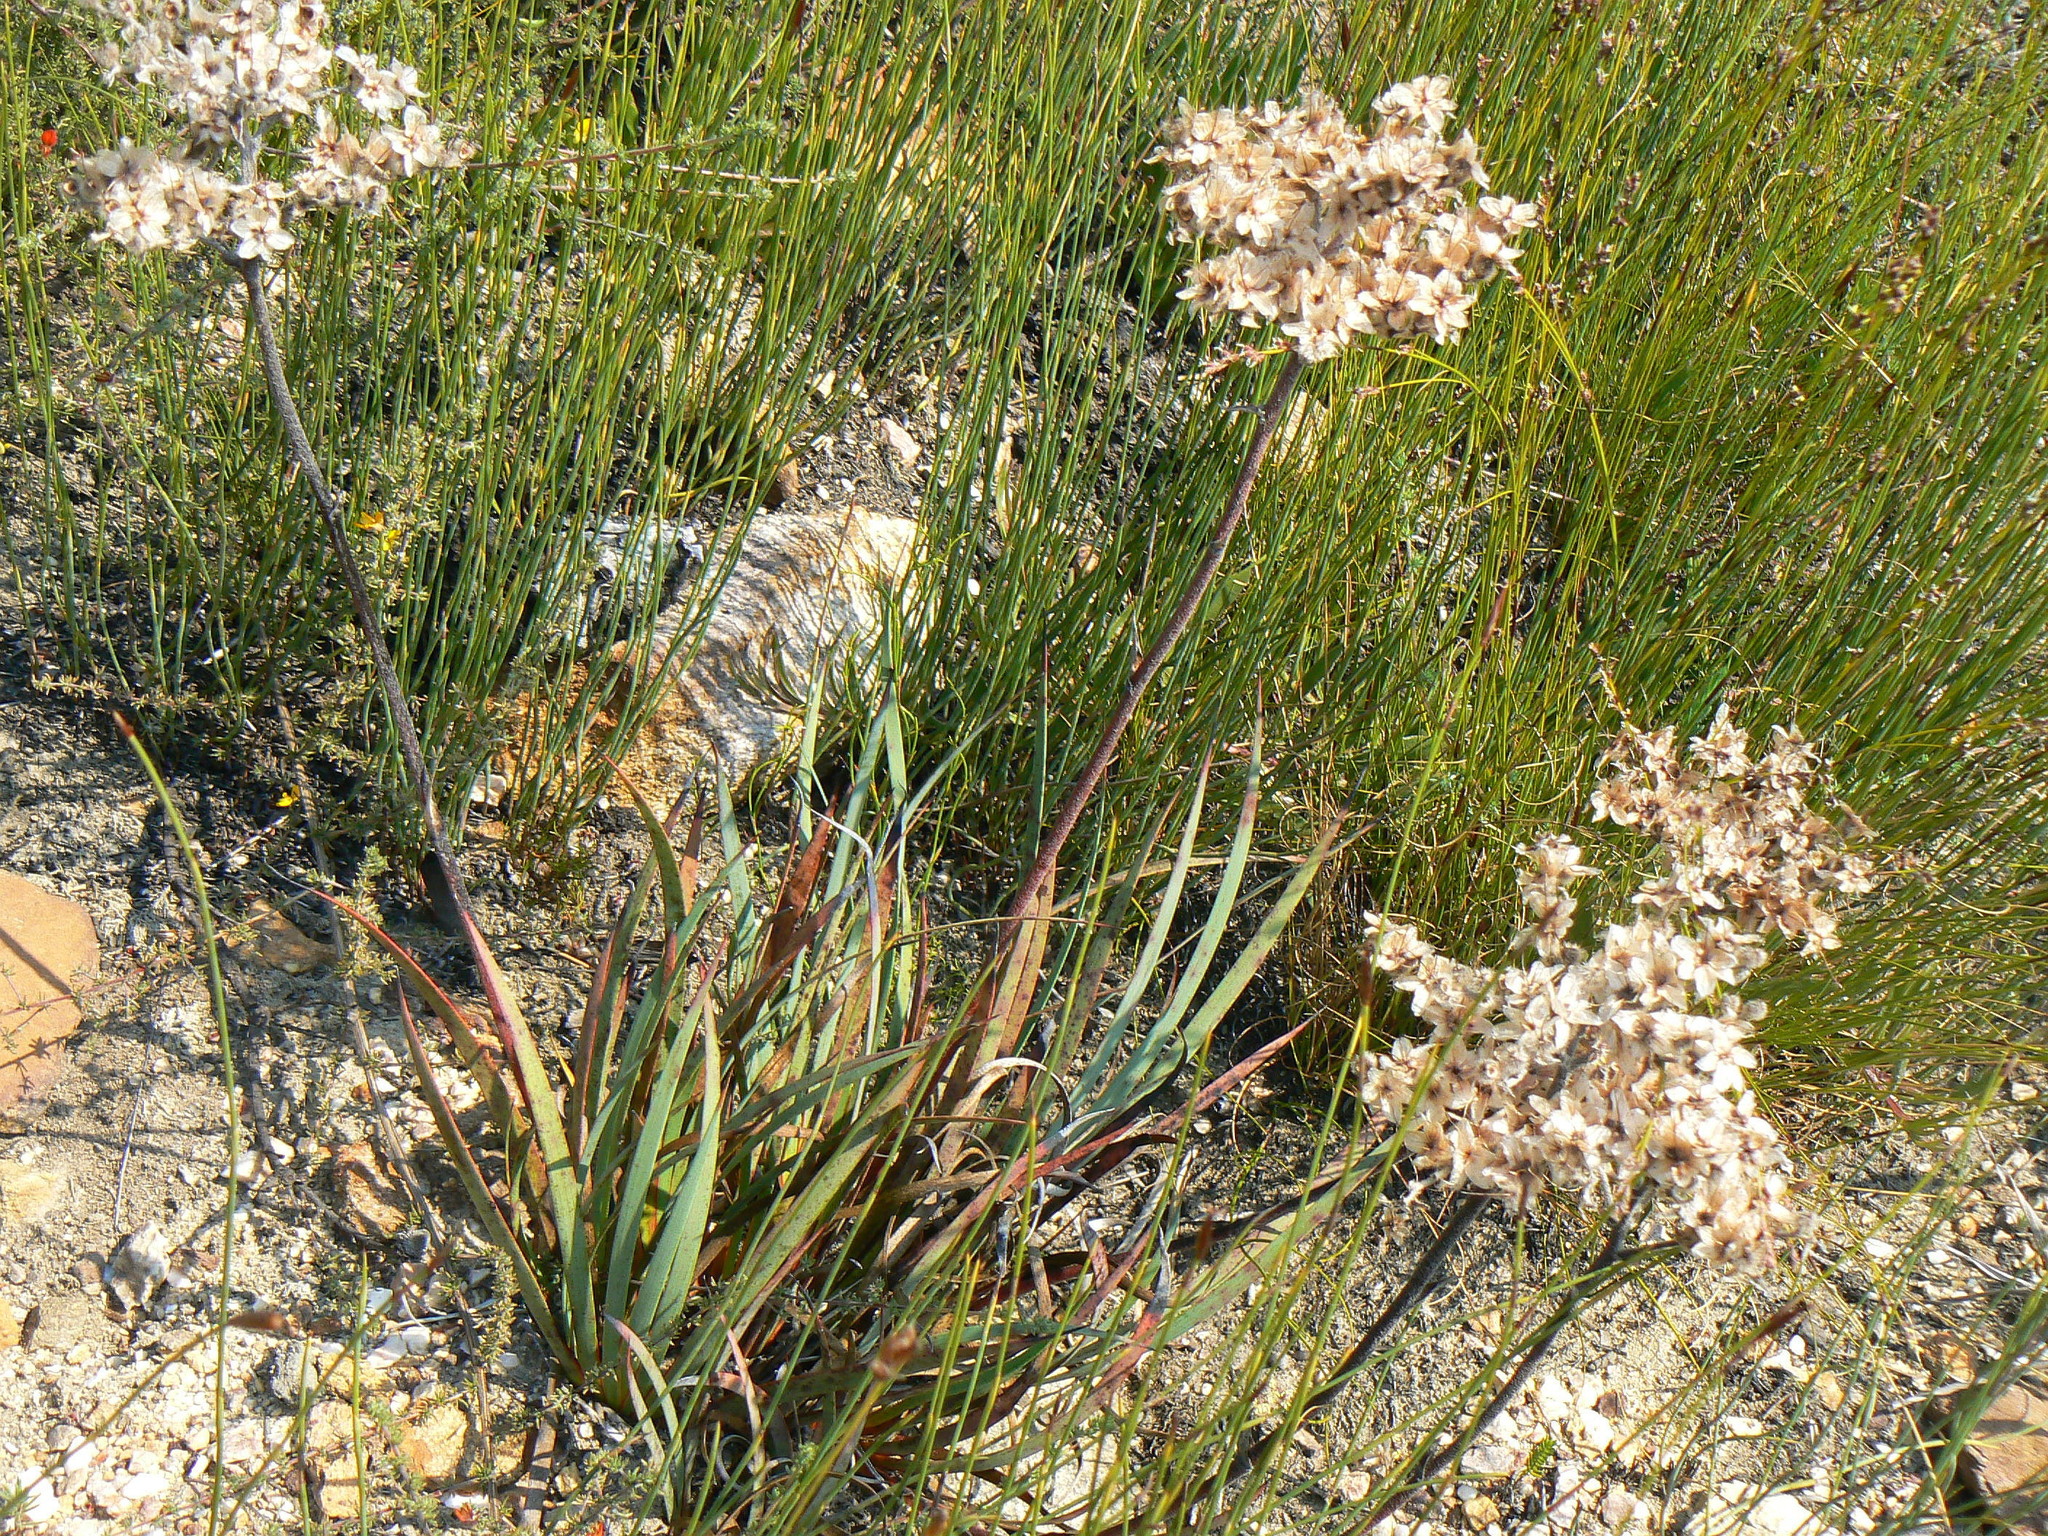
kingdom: Plantae
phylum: Tracheophyta
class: Liliopsida
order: Commelinales
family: Haemodoraceae
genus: Dilatris
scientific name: Dilatris ixioides
